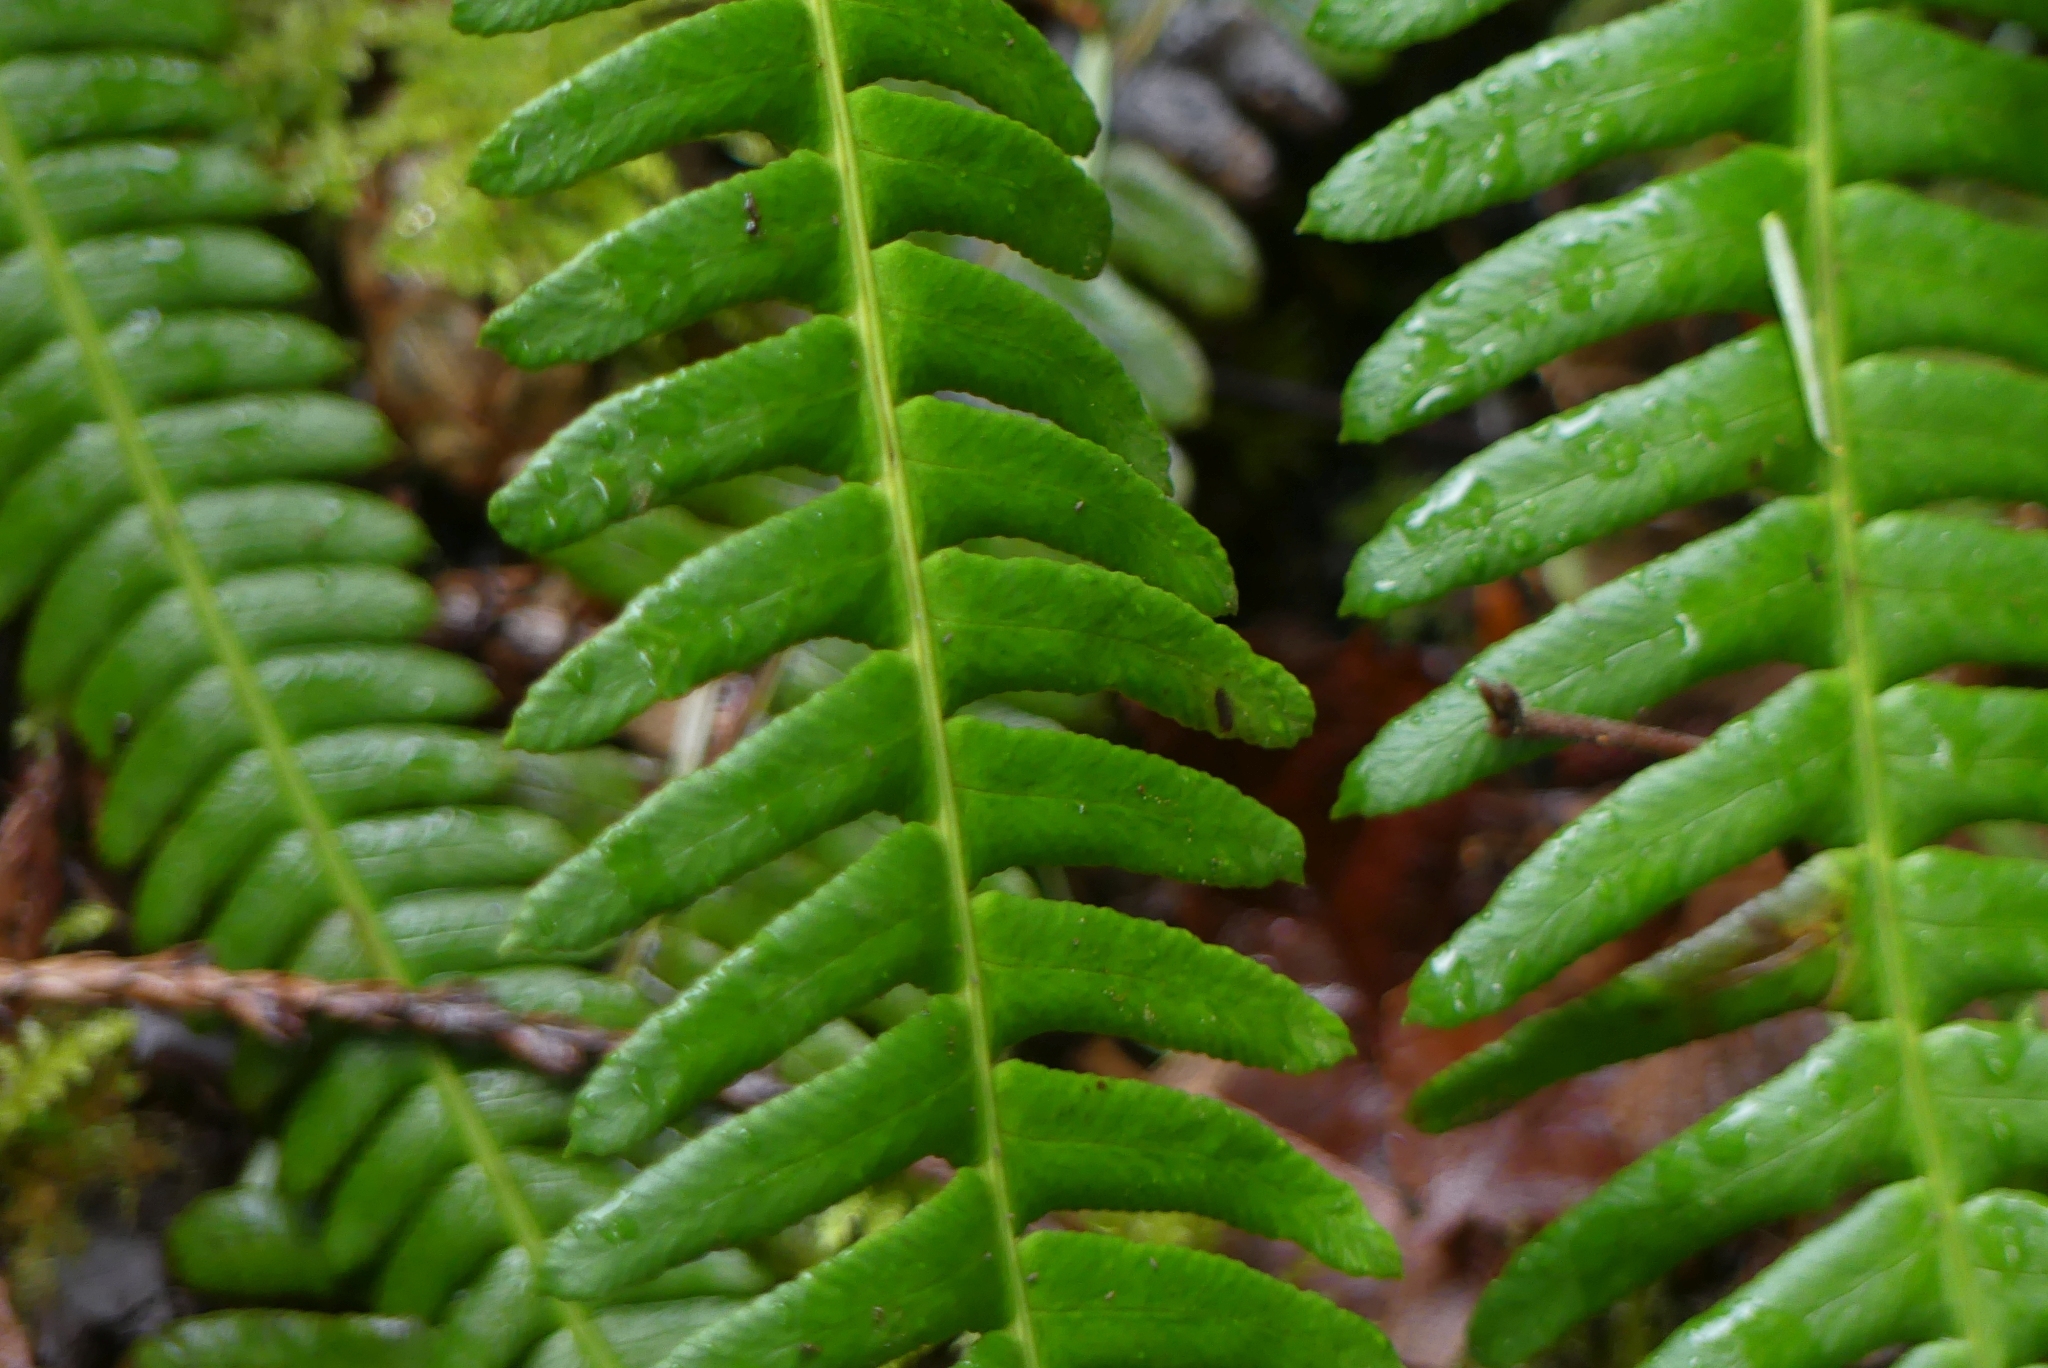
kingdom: Plantae
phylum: Tracheophyta
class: Polypodiopsida
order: Polypodiales
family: Blechnaceae
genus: Struthiopteris
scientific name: Struthiopteris spicant
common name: Deer fern
